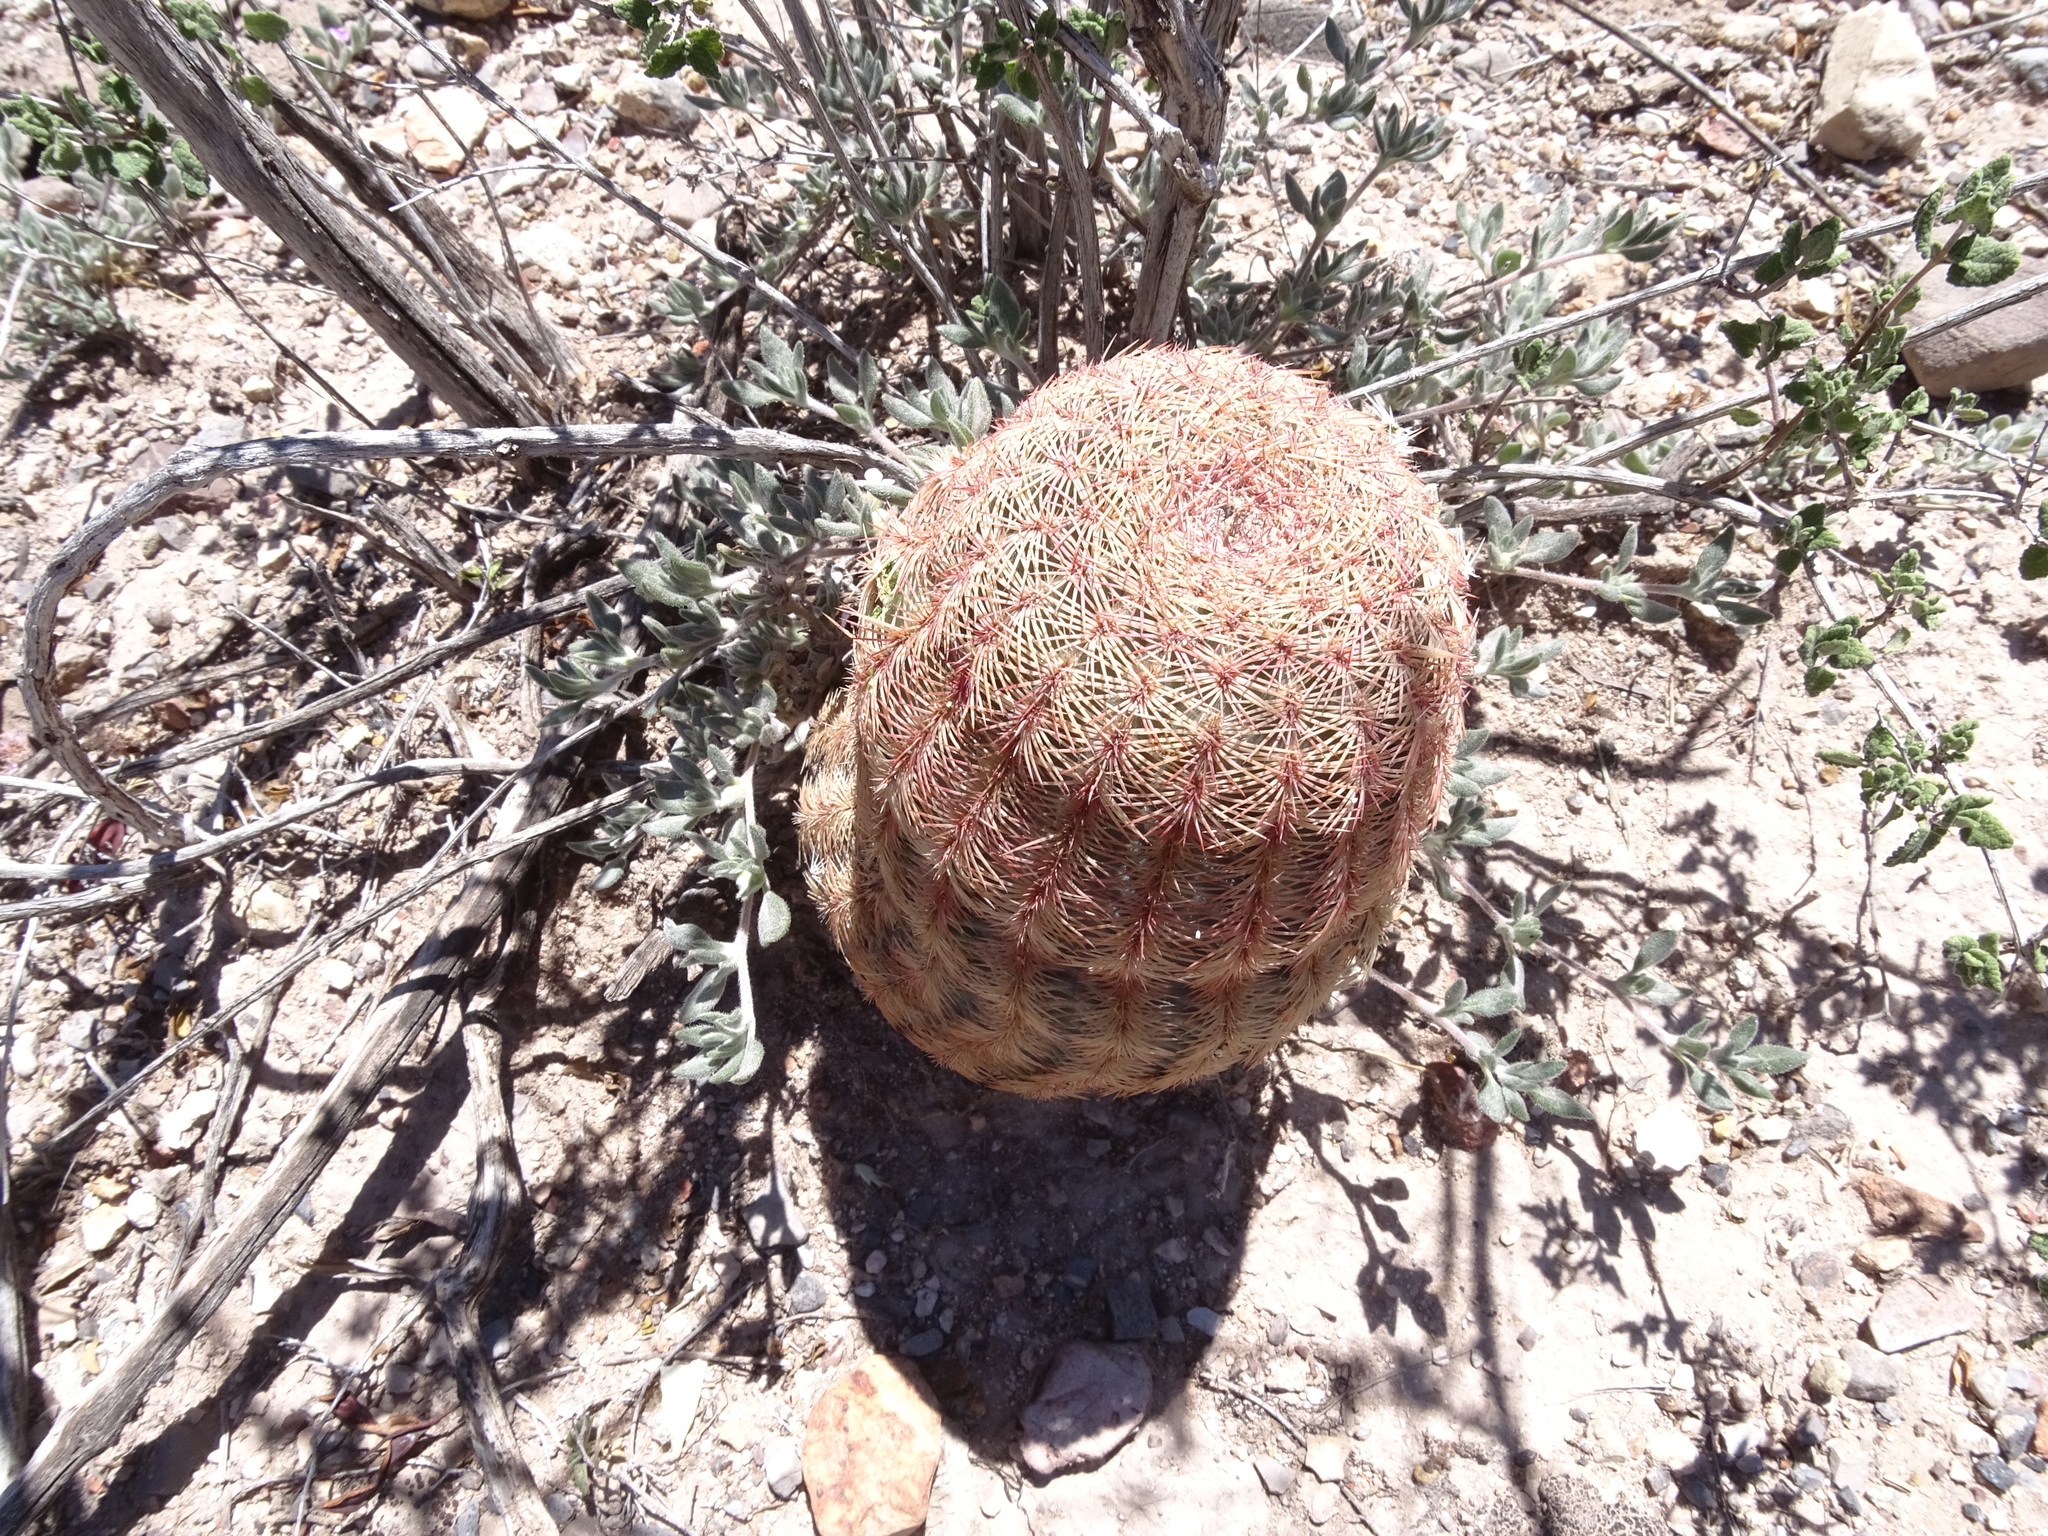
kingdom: Plantae
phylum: Tracheophyta
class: Magnoliopsida
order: Caryophyllales
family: Cactaceae
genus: Echinocereus
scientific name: Echinocereus pectinatus
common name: Rainbow cactus
